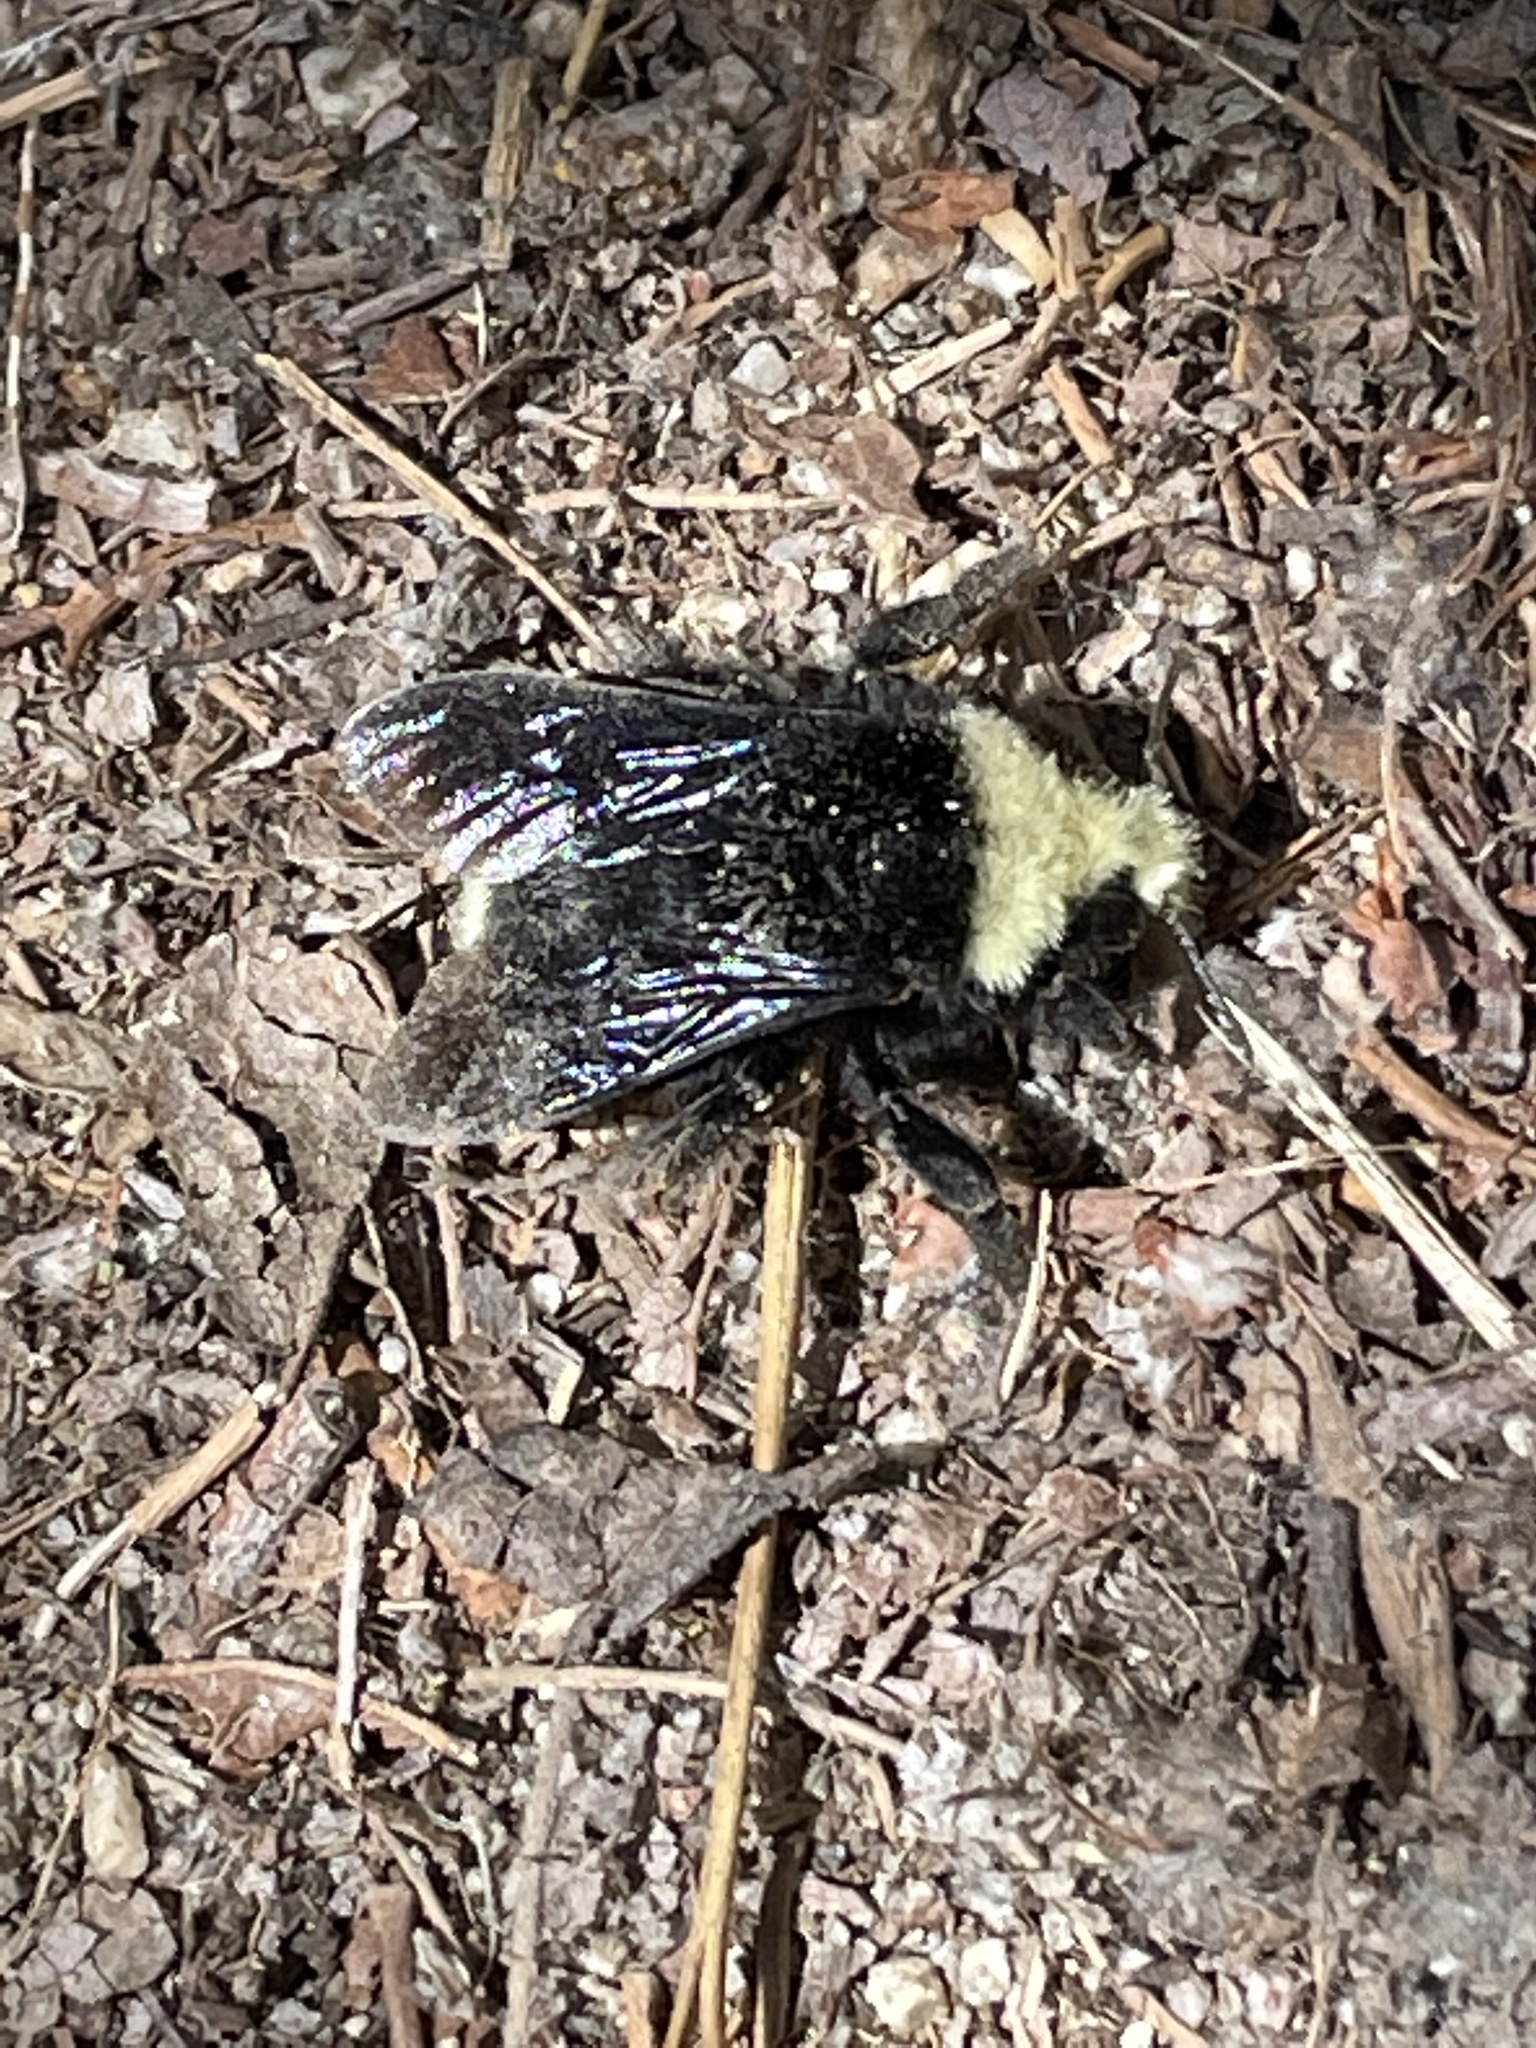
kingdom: Animalia
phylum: Arthropoda
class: Insecta
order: Hymenoptera
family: Apidae
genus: Bombus
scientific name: Bombus vosnesenskii
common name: Vosnesensky bumble bee
